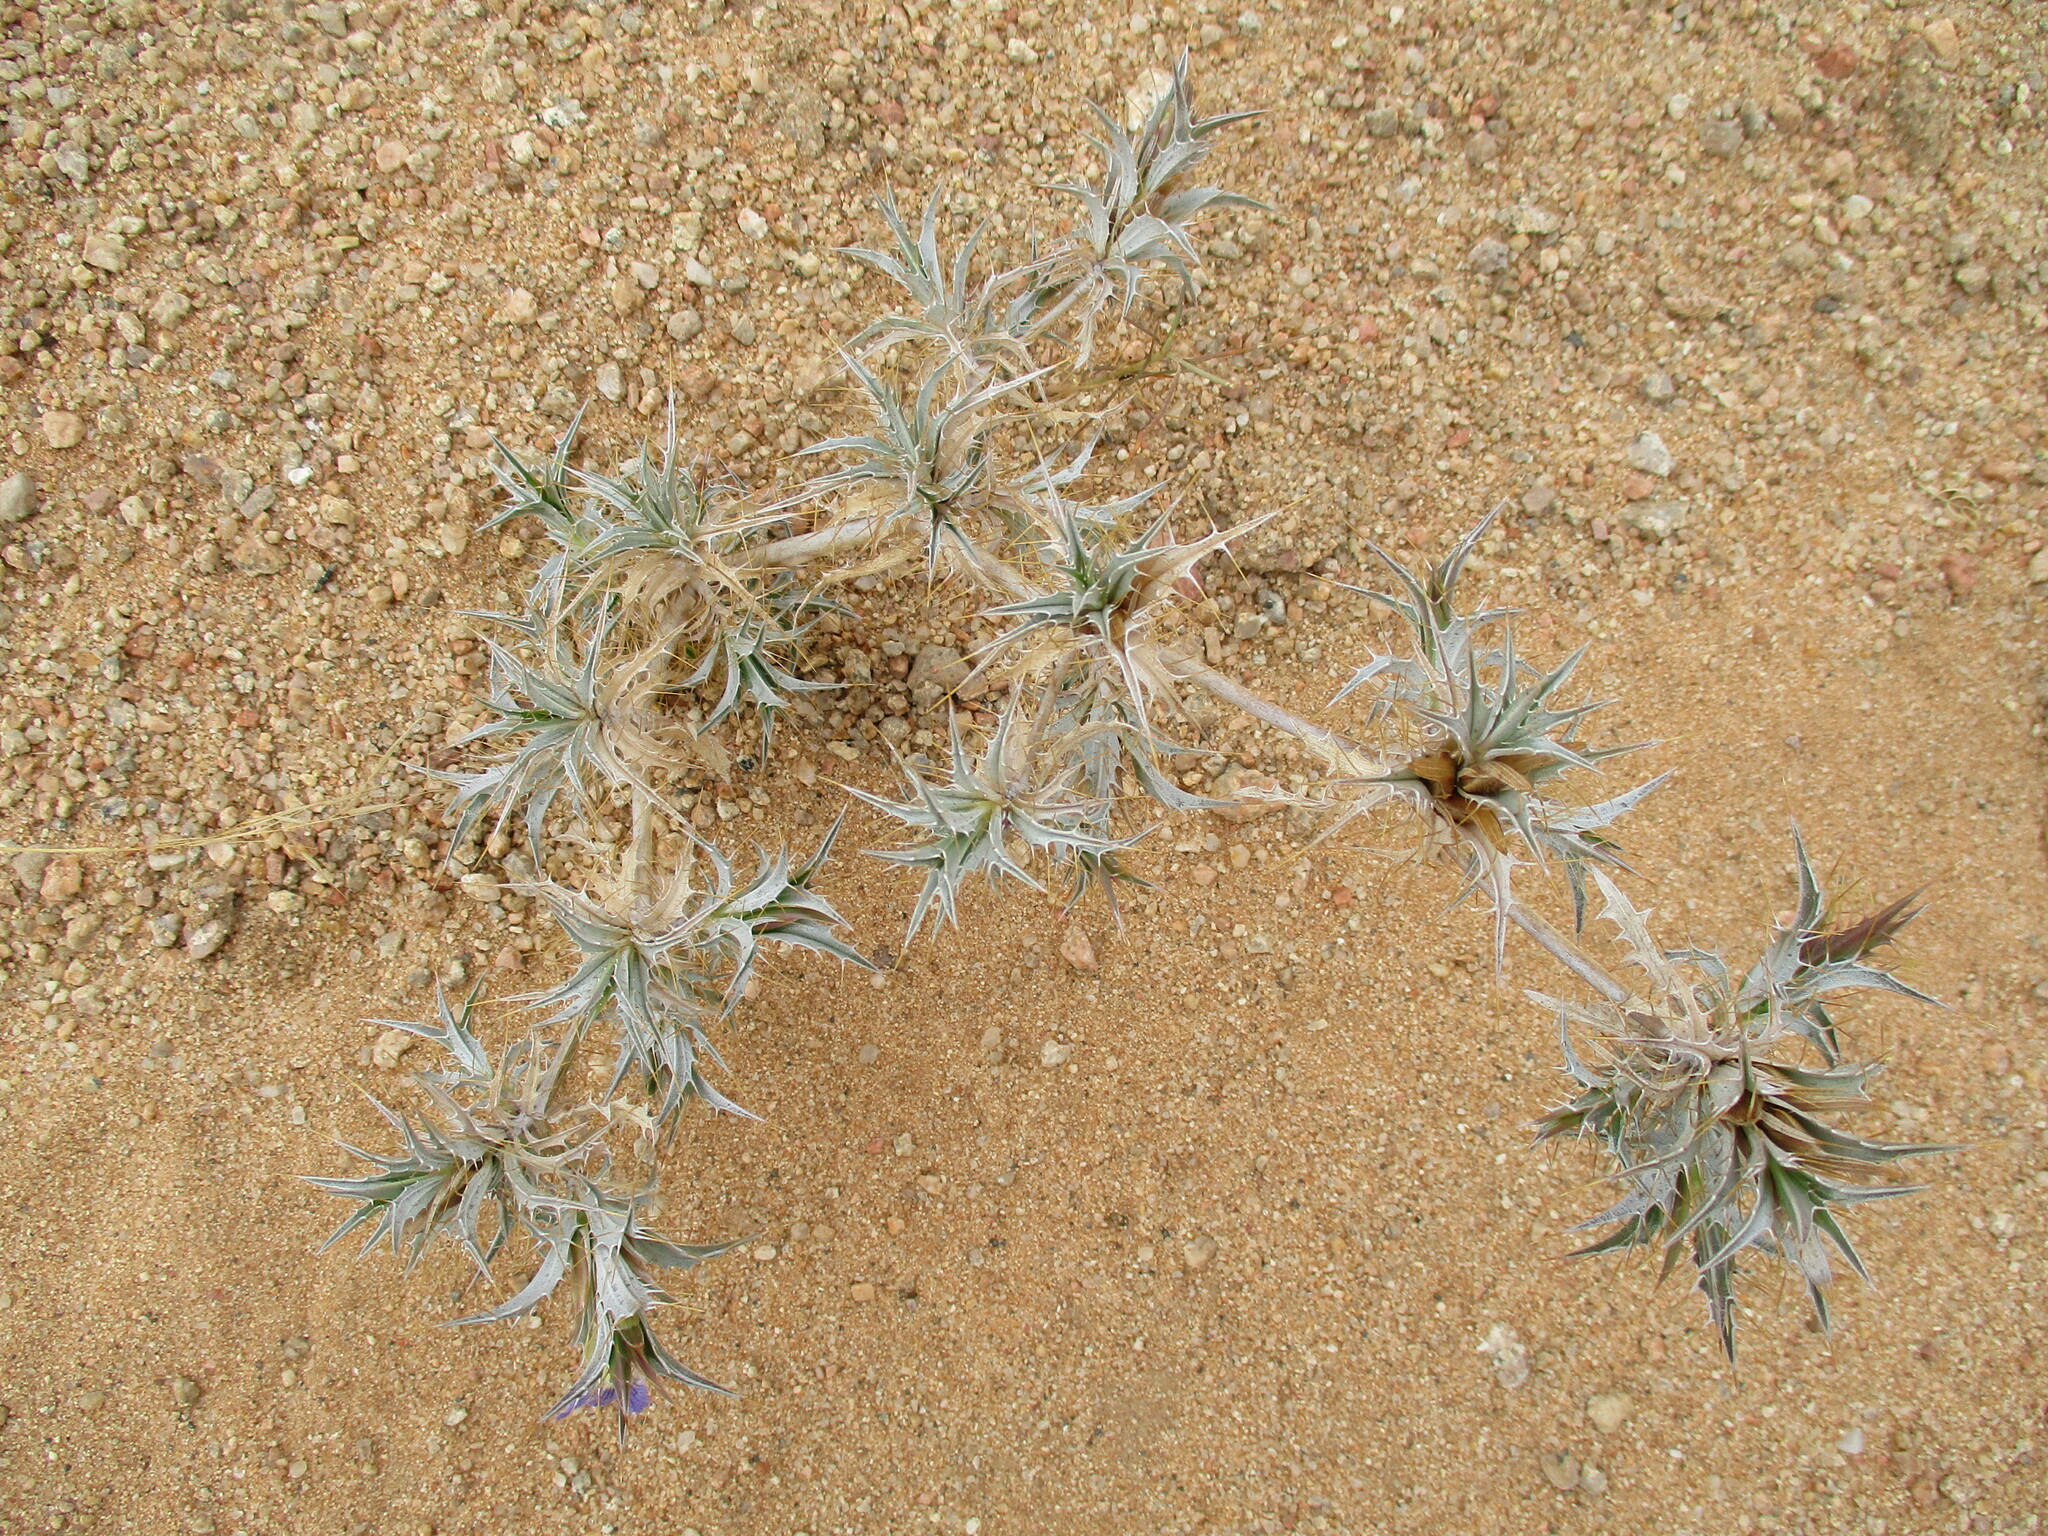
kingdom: Plantae
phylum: Tracheophyta
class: Magnoliopsida
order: Lamiales
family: Acanthaceae
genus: Blepharis
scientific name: Blepharis obmitrata
